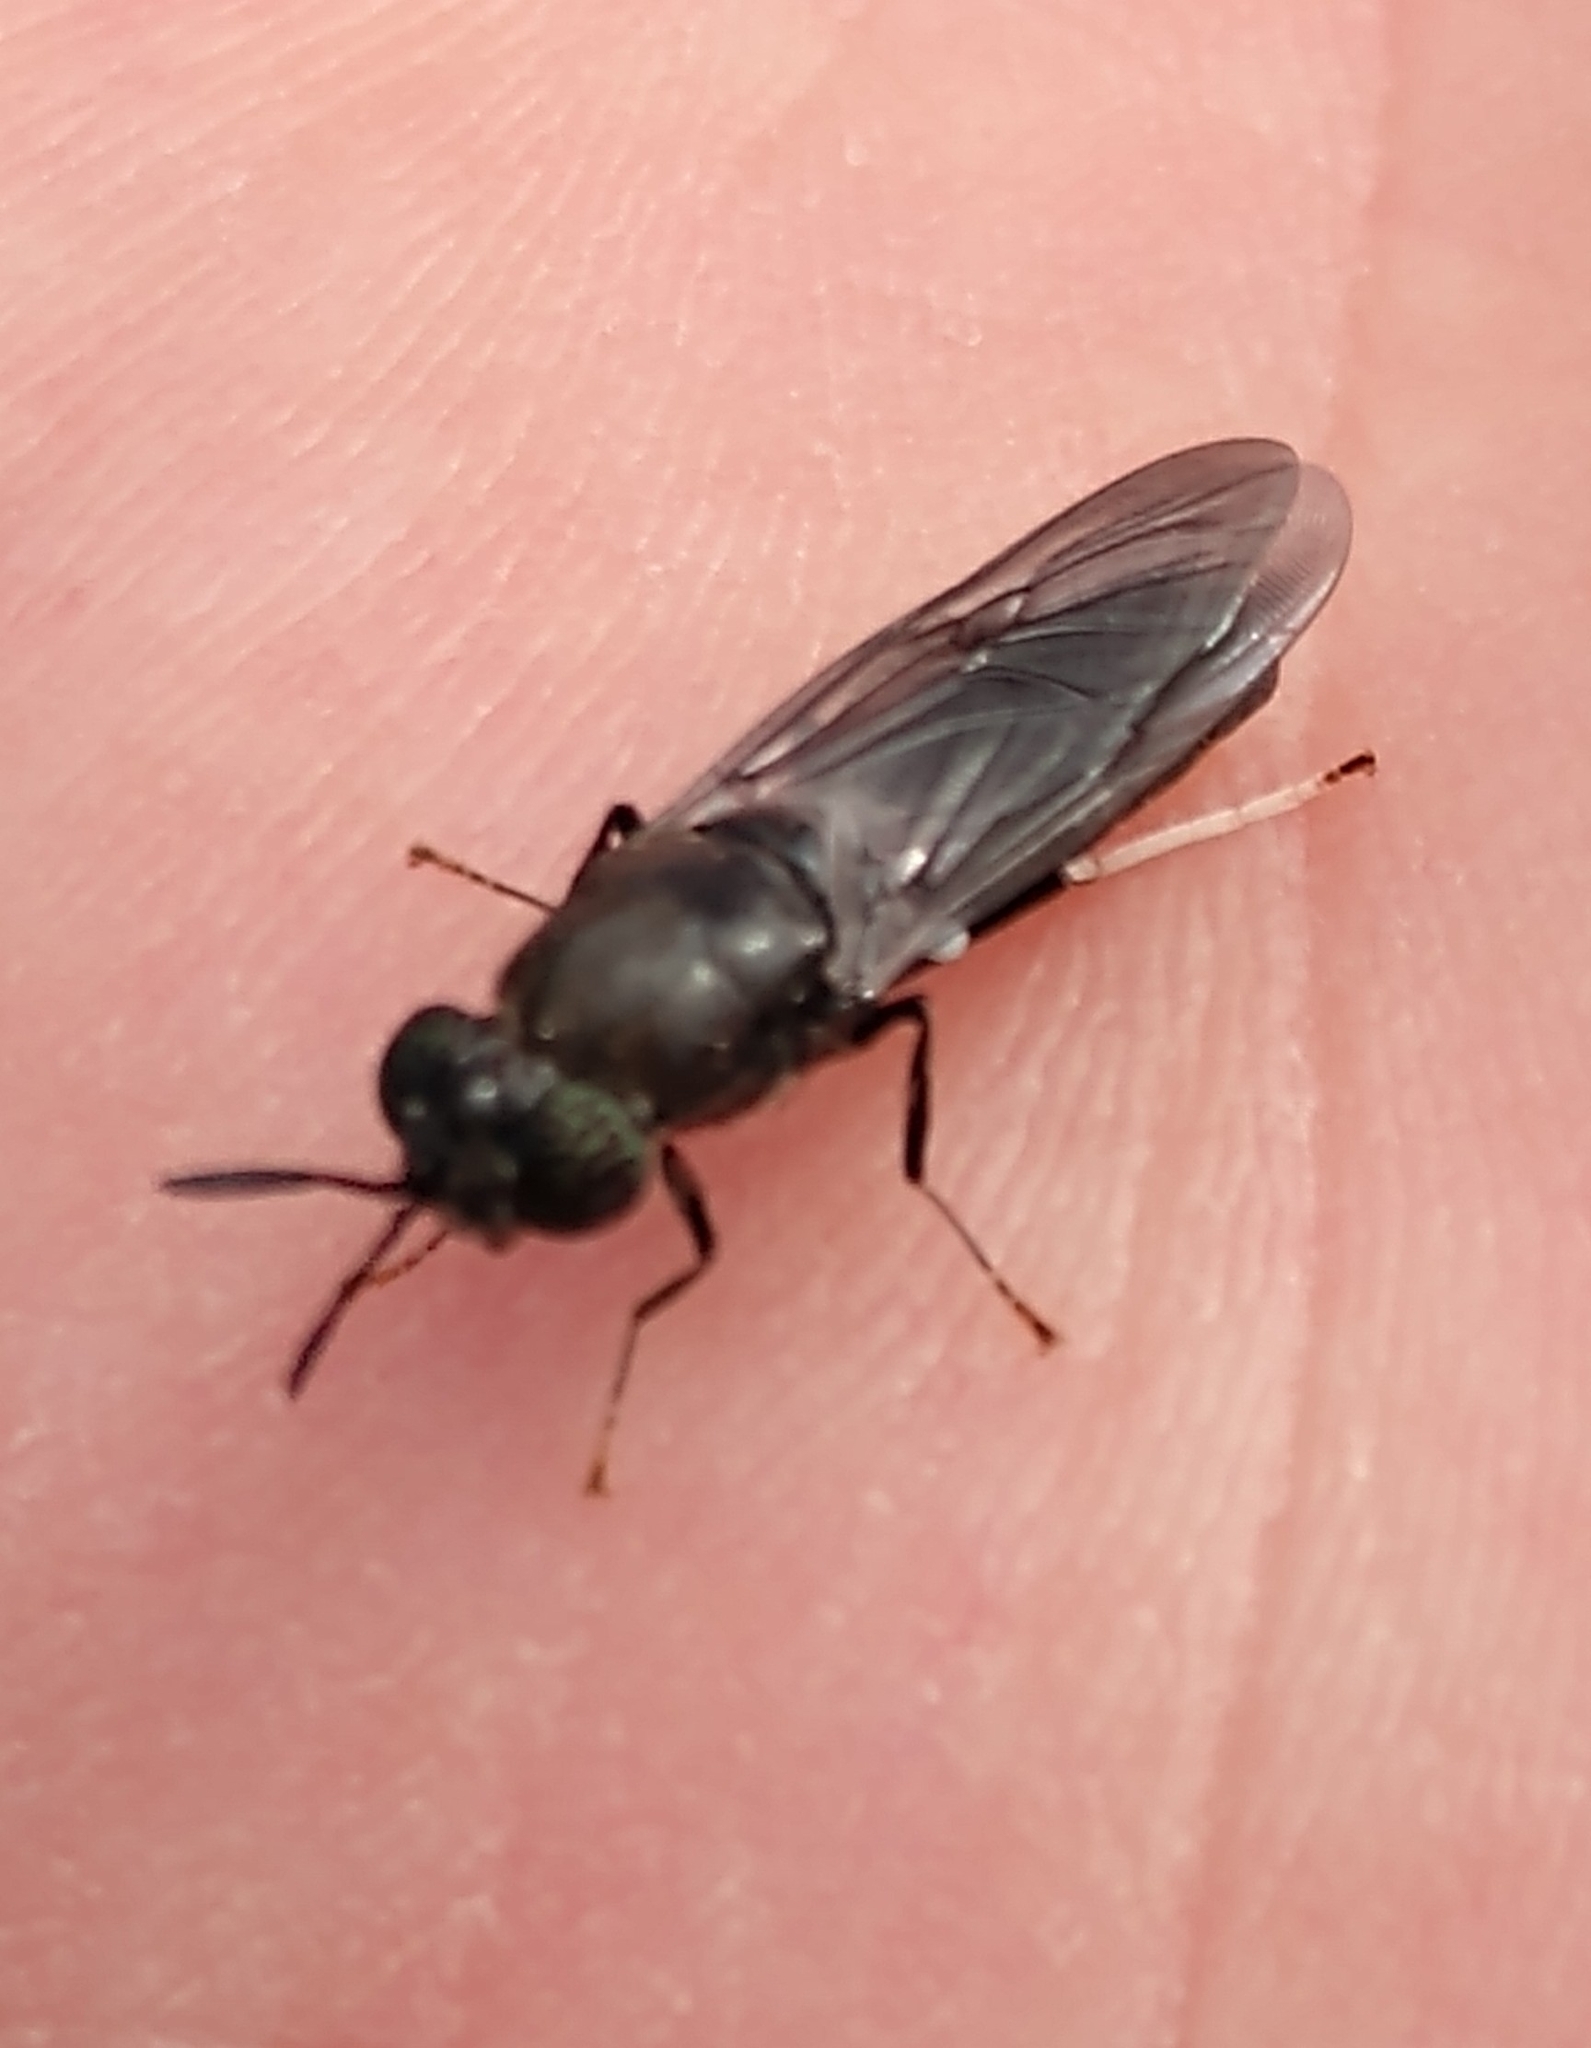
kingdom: Animalia
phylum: Arthropoda
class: Insecta
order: Diptera
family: Stratiomyidae
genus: Hermetia
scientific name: Hermetia illucens
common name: Black soldier fly
